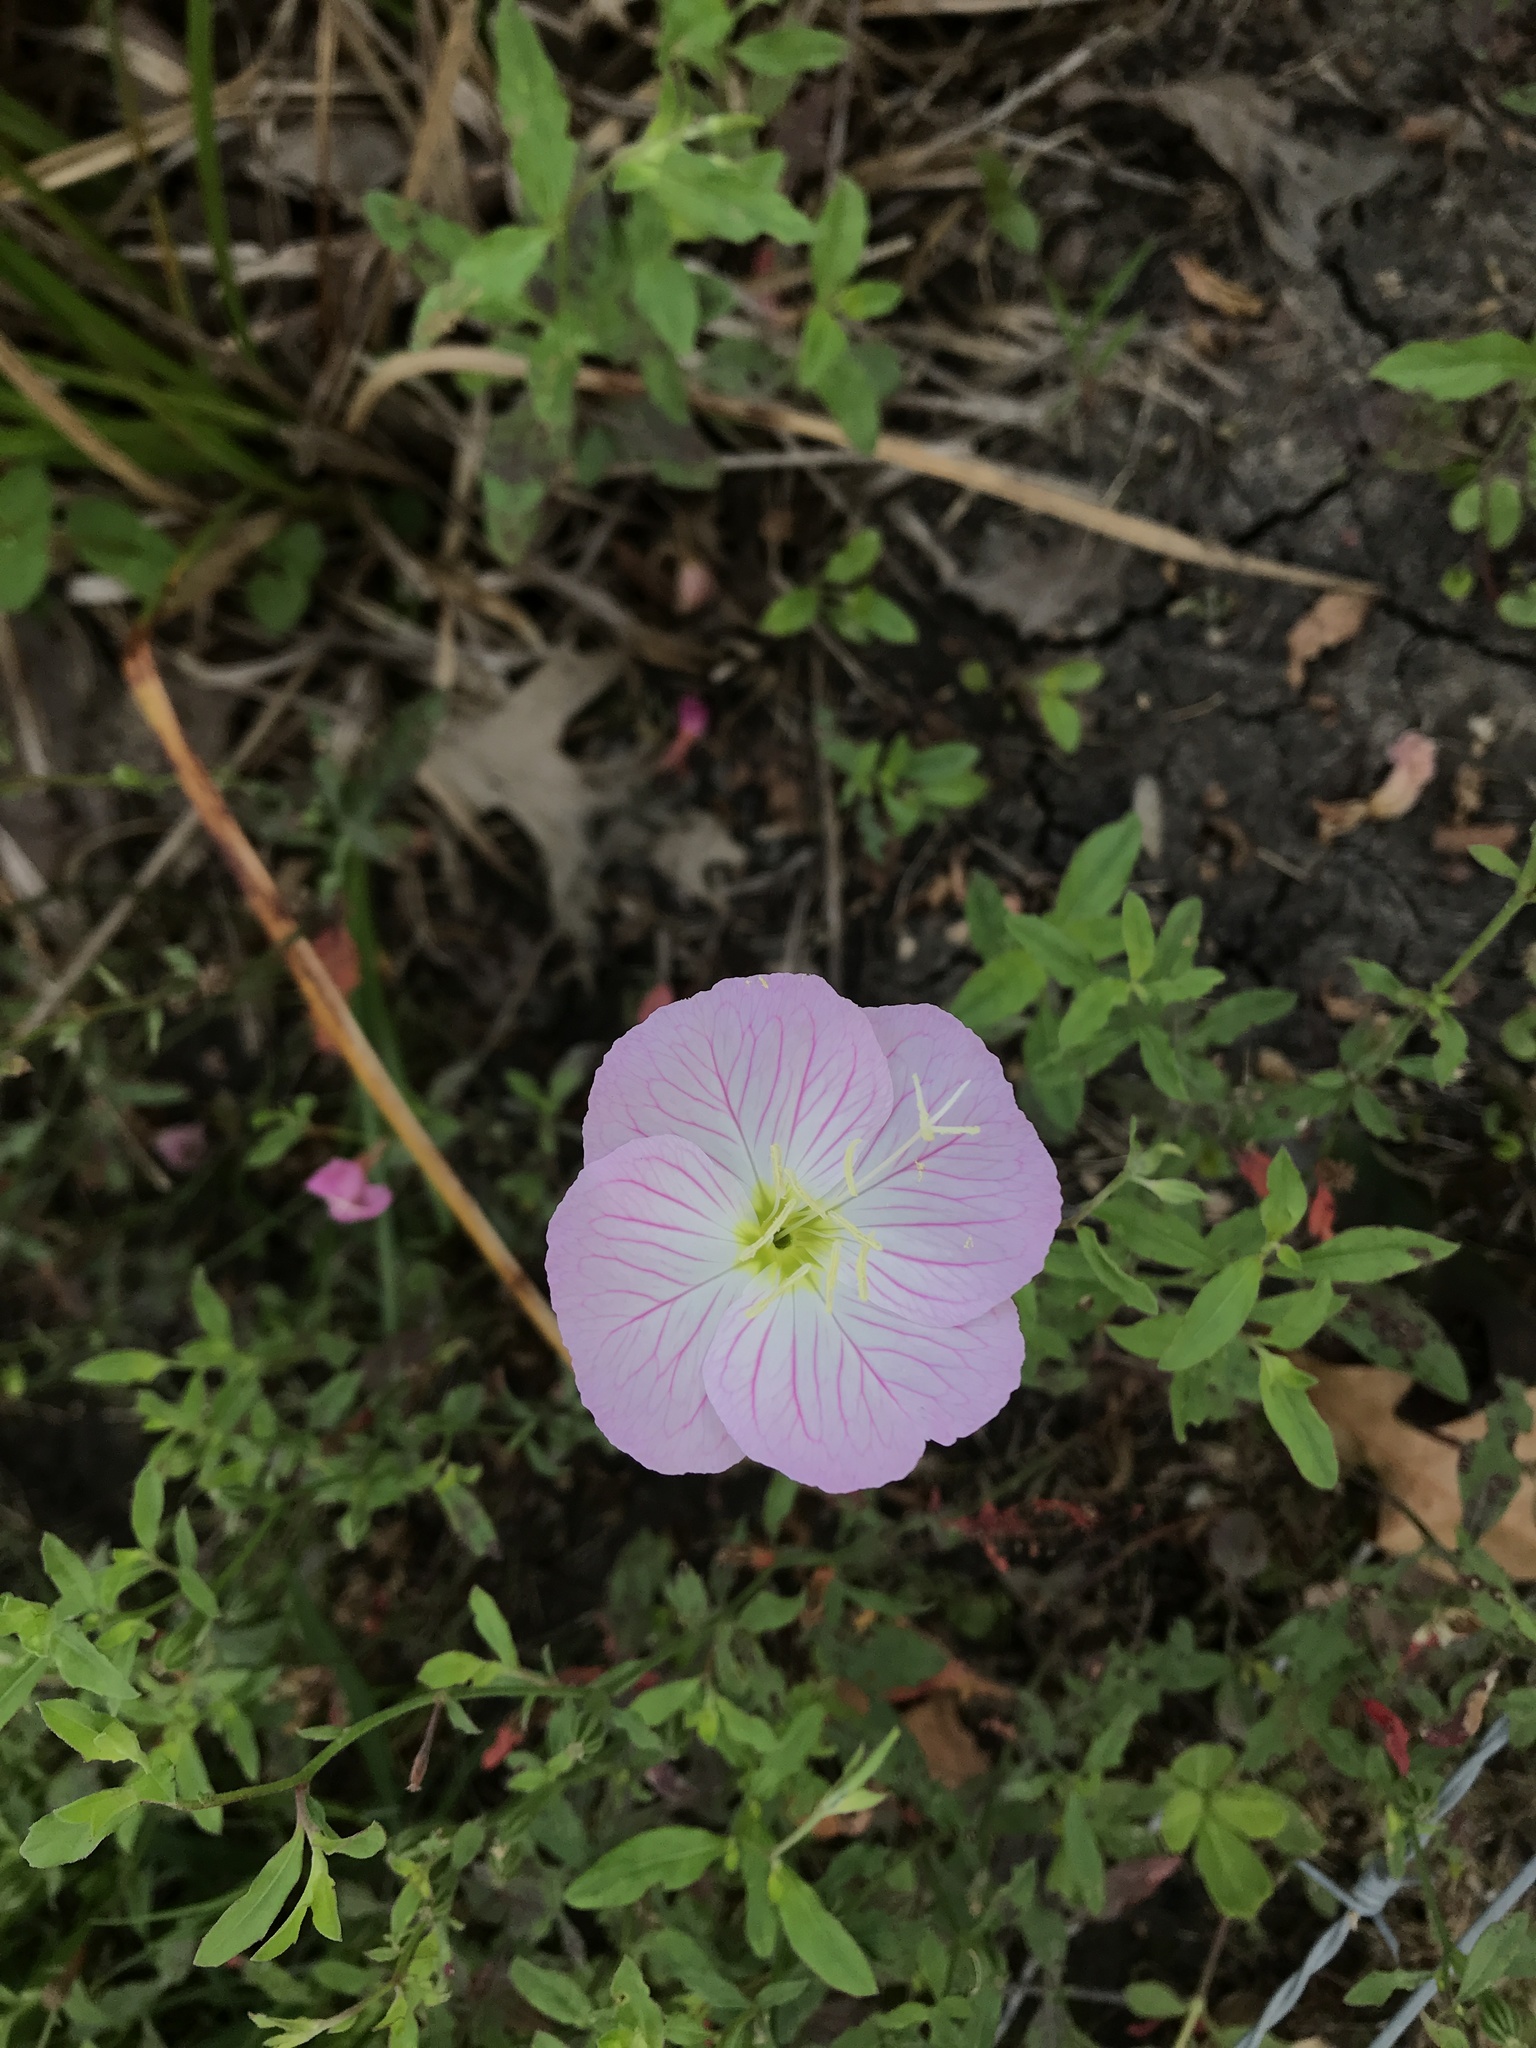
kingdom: Plantae
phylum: Tracheophyta
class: Magnoliopsida
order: Myrtales
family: Onagraceae
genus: Oenothera
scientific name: Oenothera speciosa
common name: White evening-primrose
